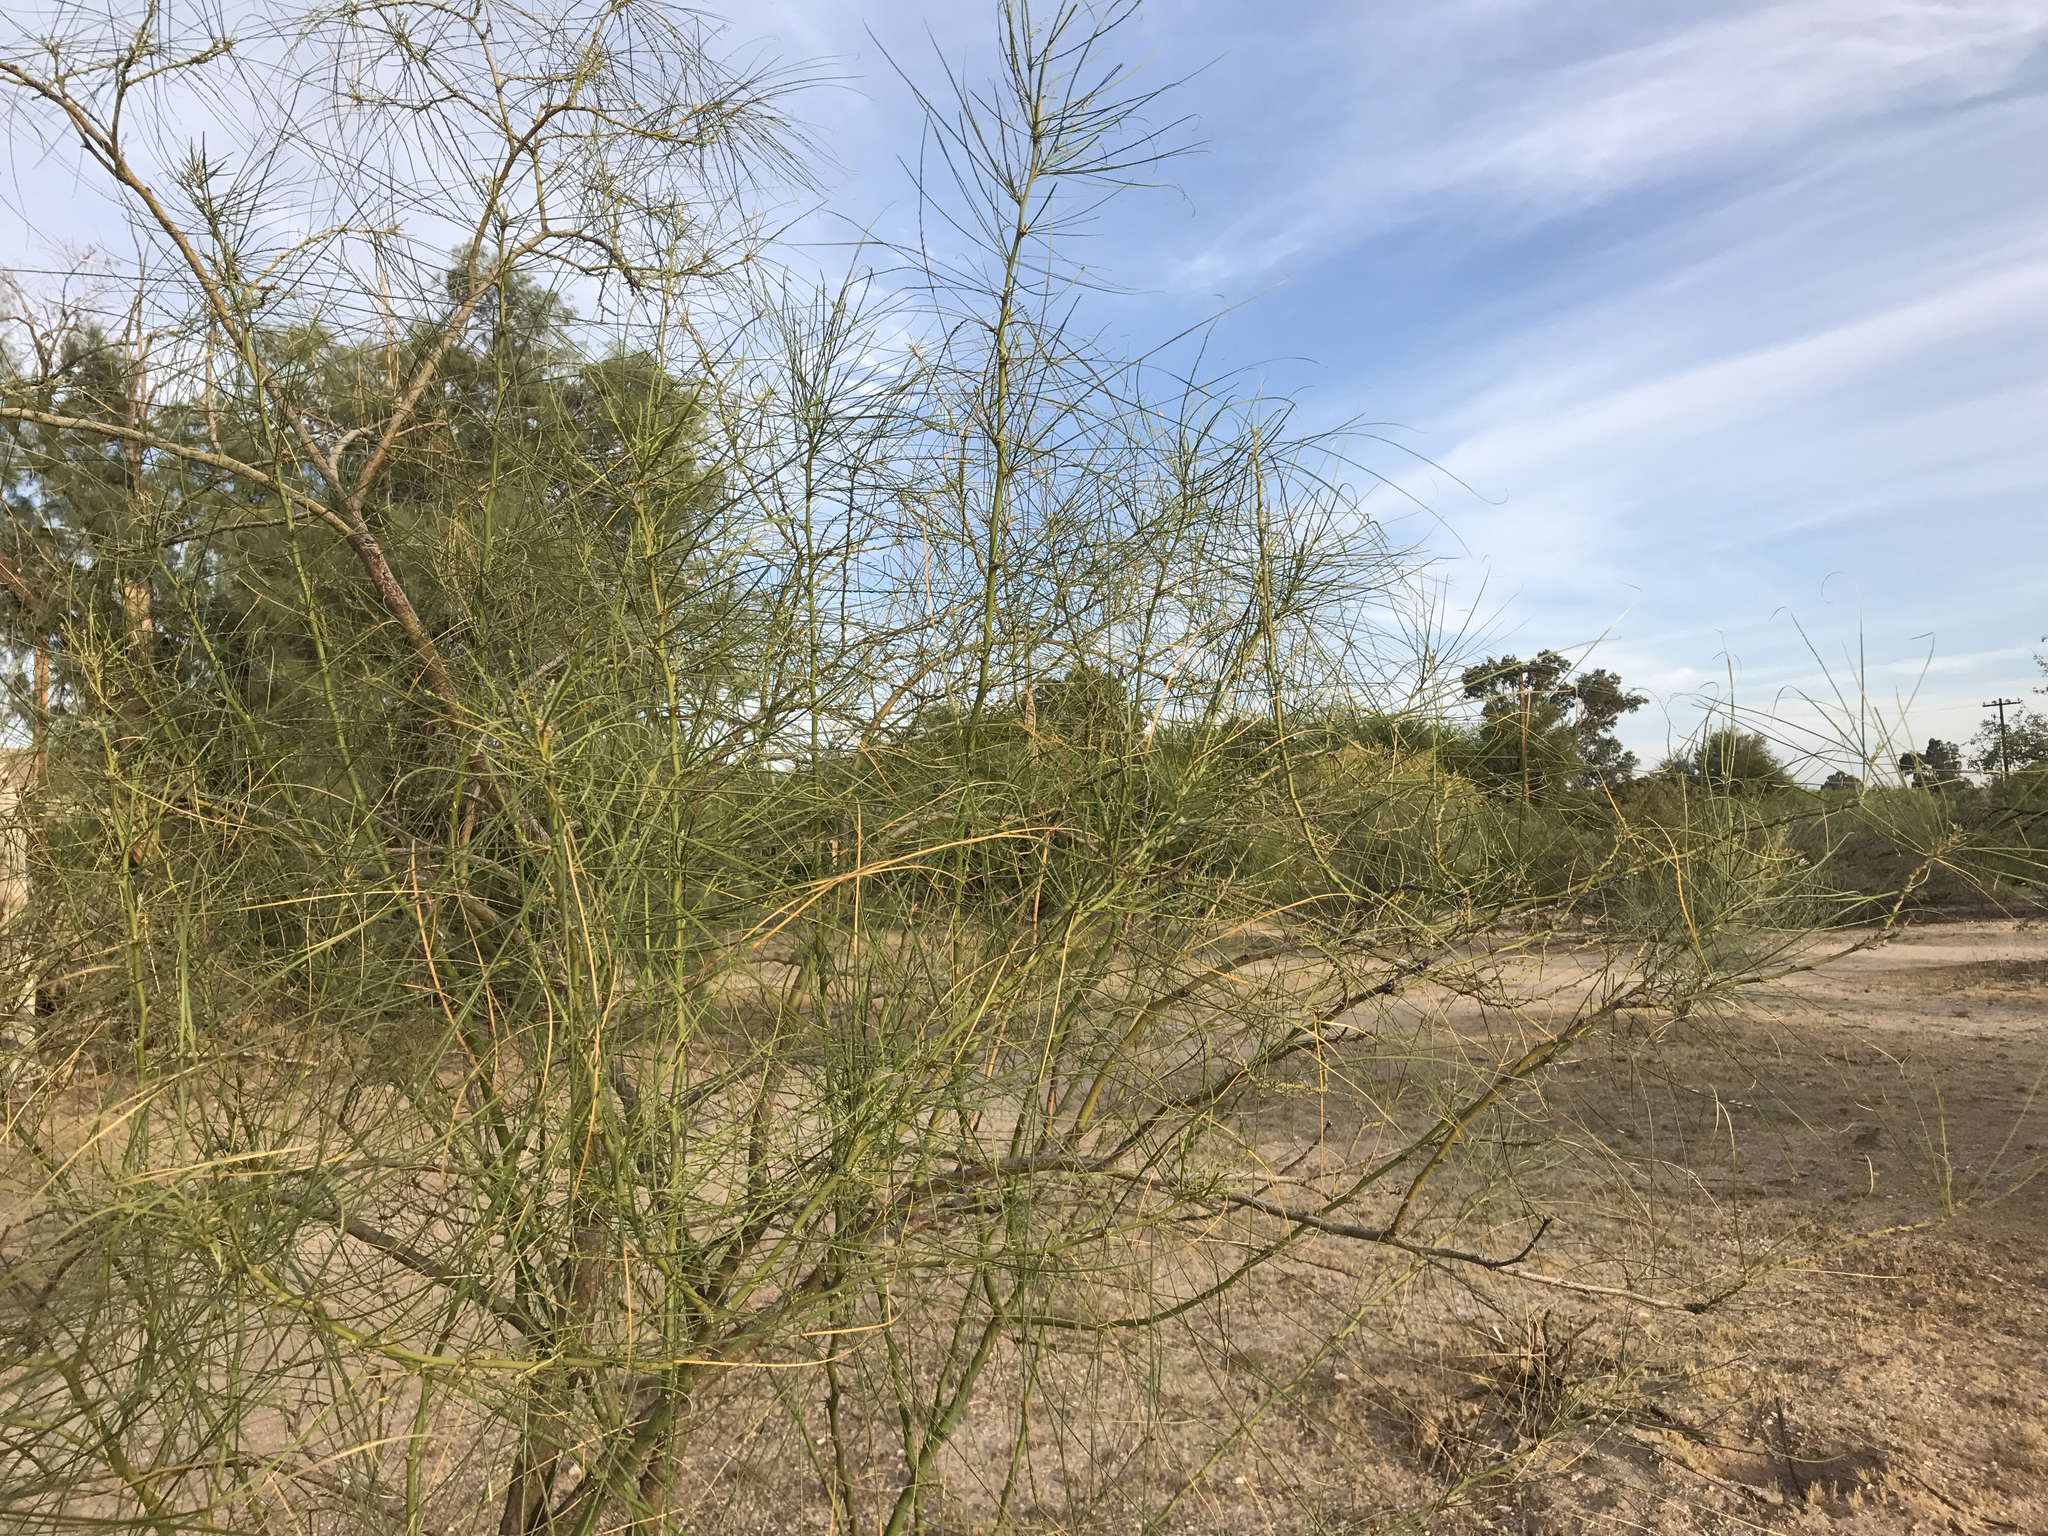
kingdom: Plantae
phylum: Tracheophyta
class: Magnoliopsida
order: Fabales
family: Fabaceae
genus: Parkinsonia
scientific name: Parkinsonia aculeata
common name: Jerusalem thorn
